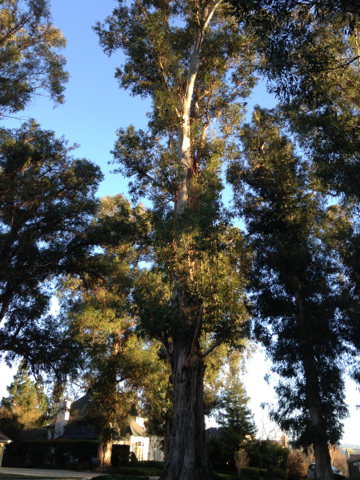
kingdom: Plantae
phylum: Tracheophyta
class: Magnoliopsida
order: Myrtales
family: Myrtaceae
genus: Eucalyptus
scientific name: Eucalyptus globulus
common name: Southern blue-gum
